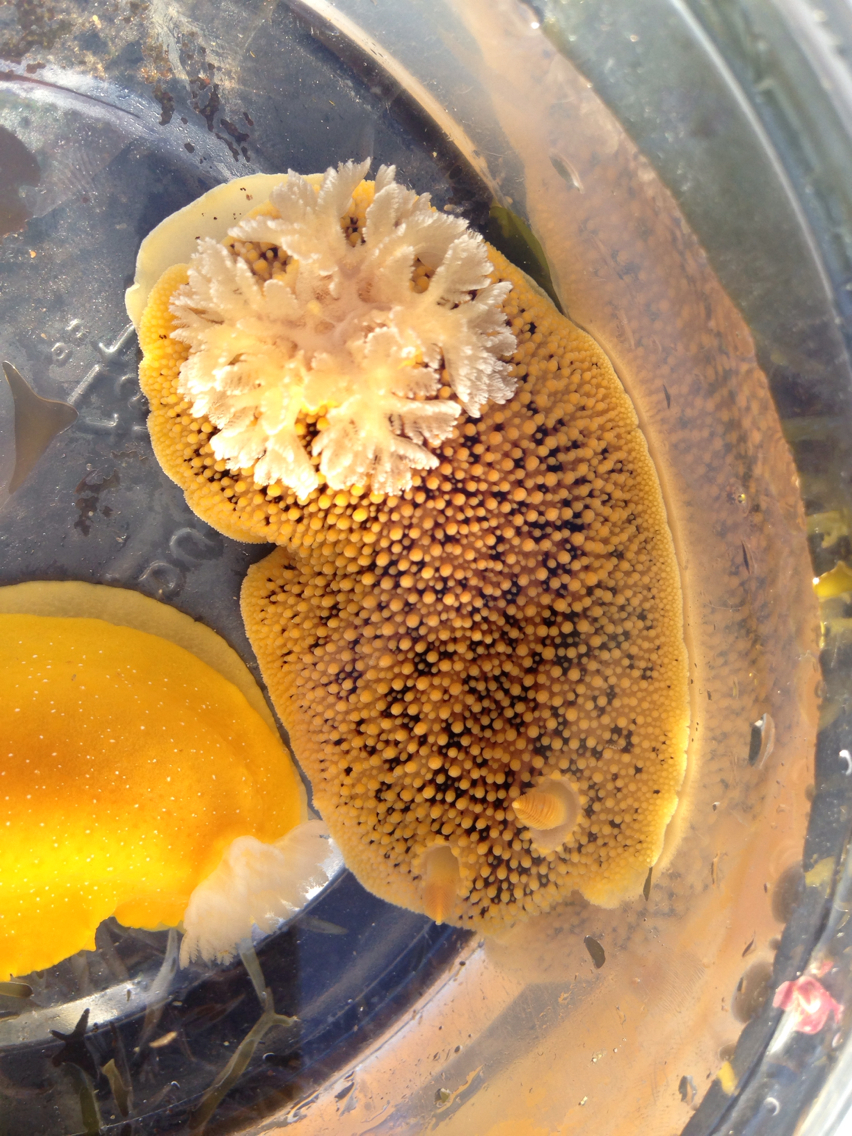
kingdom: Animalia
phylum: Mollusca
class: Gastropoda
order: Nudibranchia
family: Discodorididae
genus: Peltodoris
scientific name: Peltodoris nobilis
